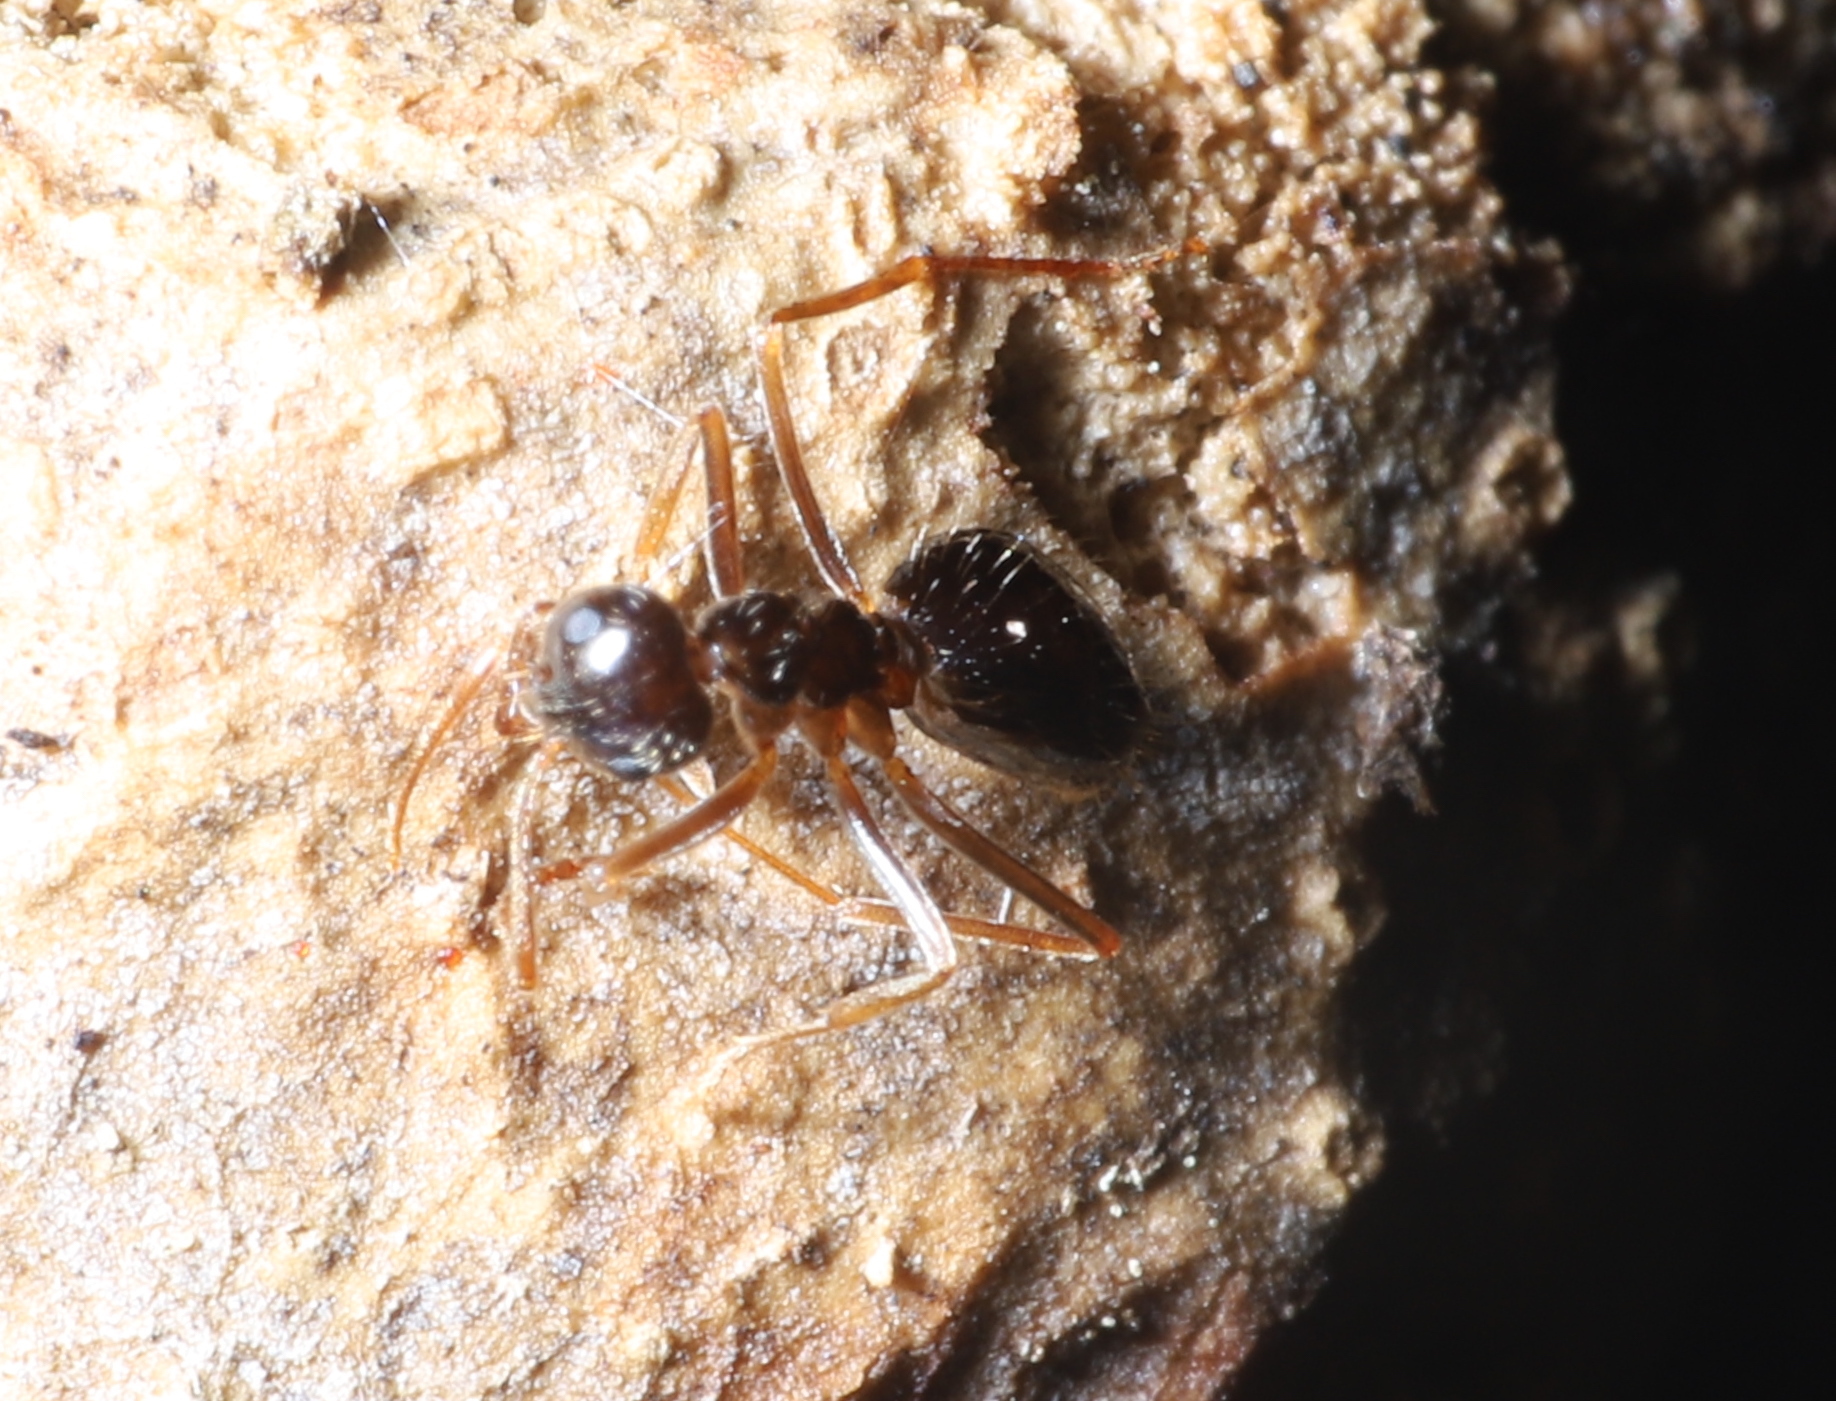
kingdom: Animalia
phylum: Arthropoda
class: Insecta
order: Hymenoptera
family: Formicidae
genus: Prenolepis
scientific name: Prenolepis imparis
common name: Small honey ant
